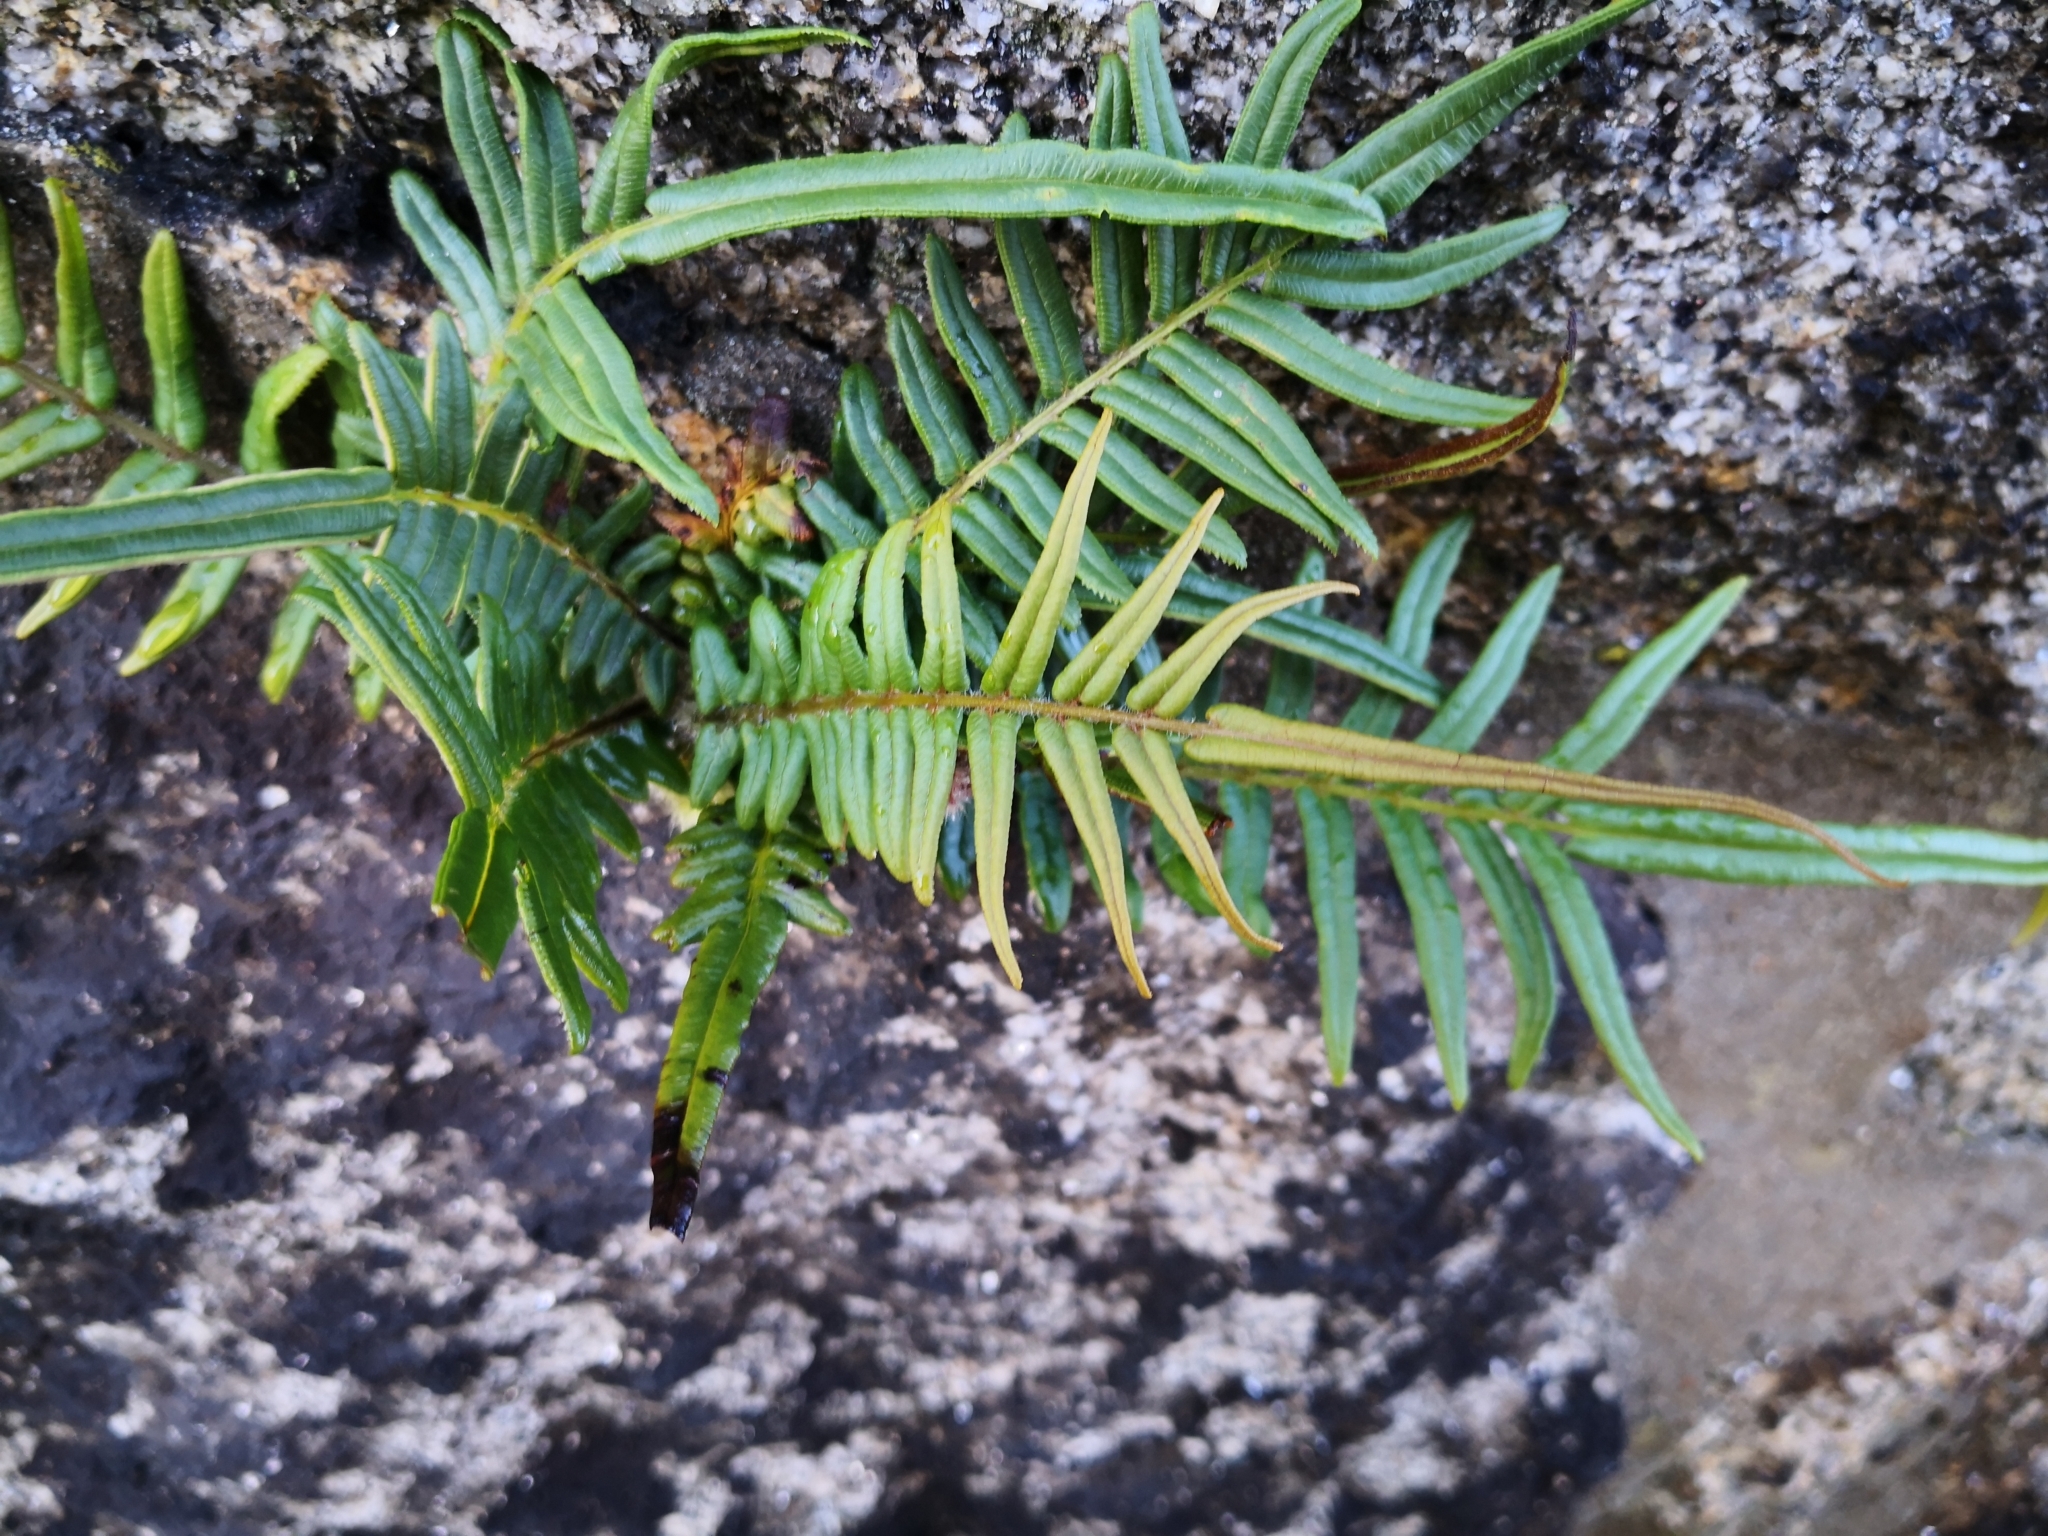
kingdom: Plantae
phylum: Tracheophyta
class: Polypodiopsida
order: Polypodiales
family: Pteridaceae
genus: Pteris
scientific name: Pteris vittata
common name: Ladder brake
